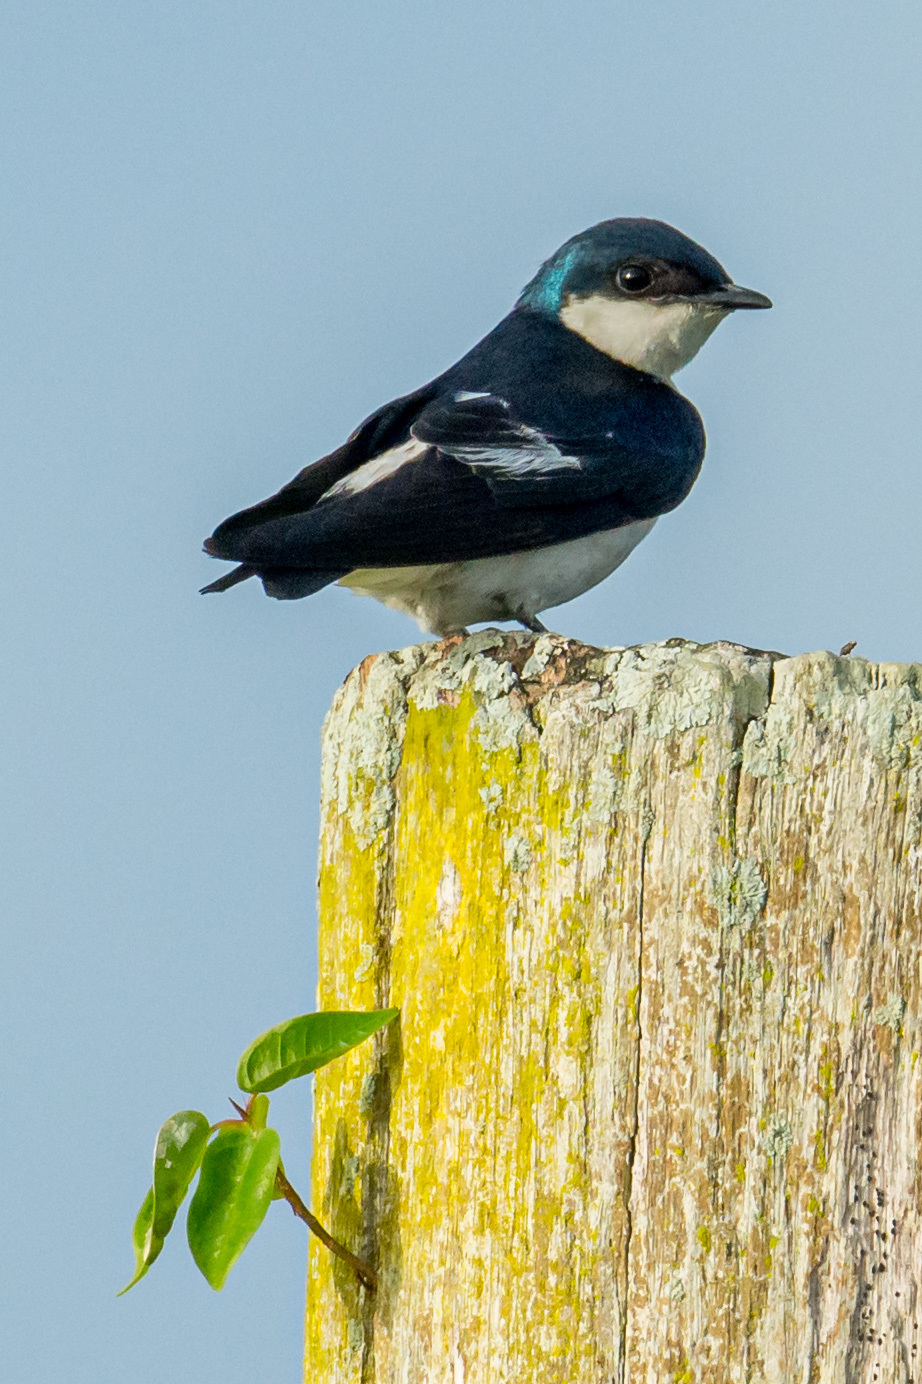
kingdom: Animalia
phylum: Chordata
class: Aves
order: Passeriformes
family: Hirundinidae
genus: Tachycineta
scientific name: Tachycineta albiventer
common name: White-winged swallow
